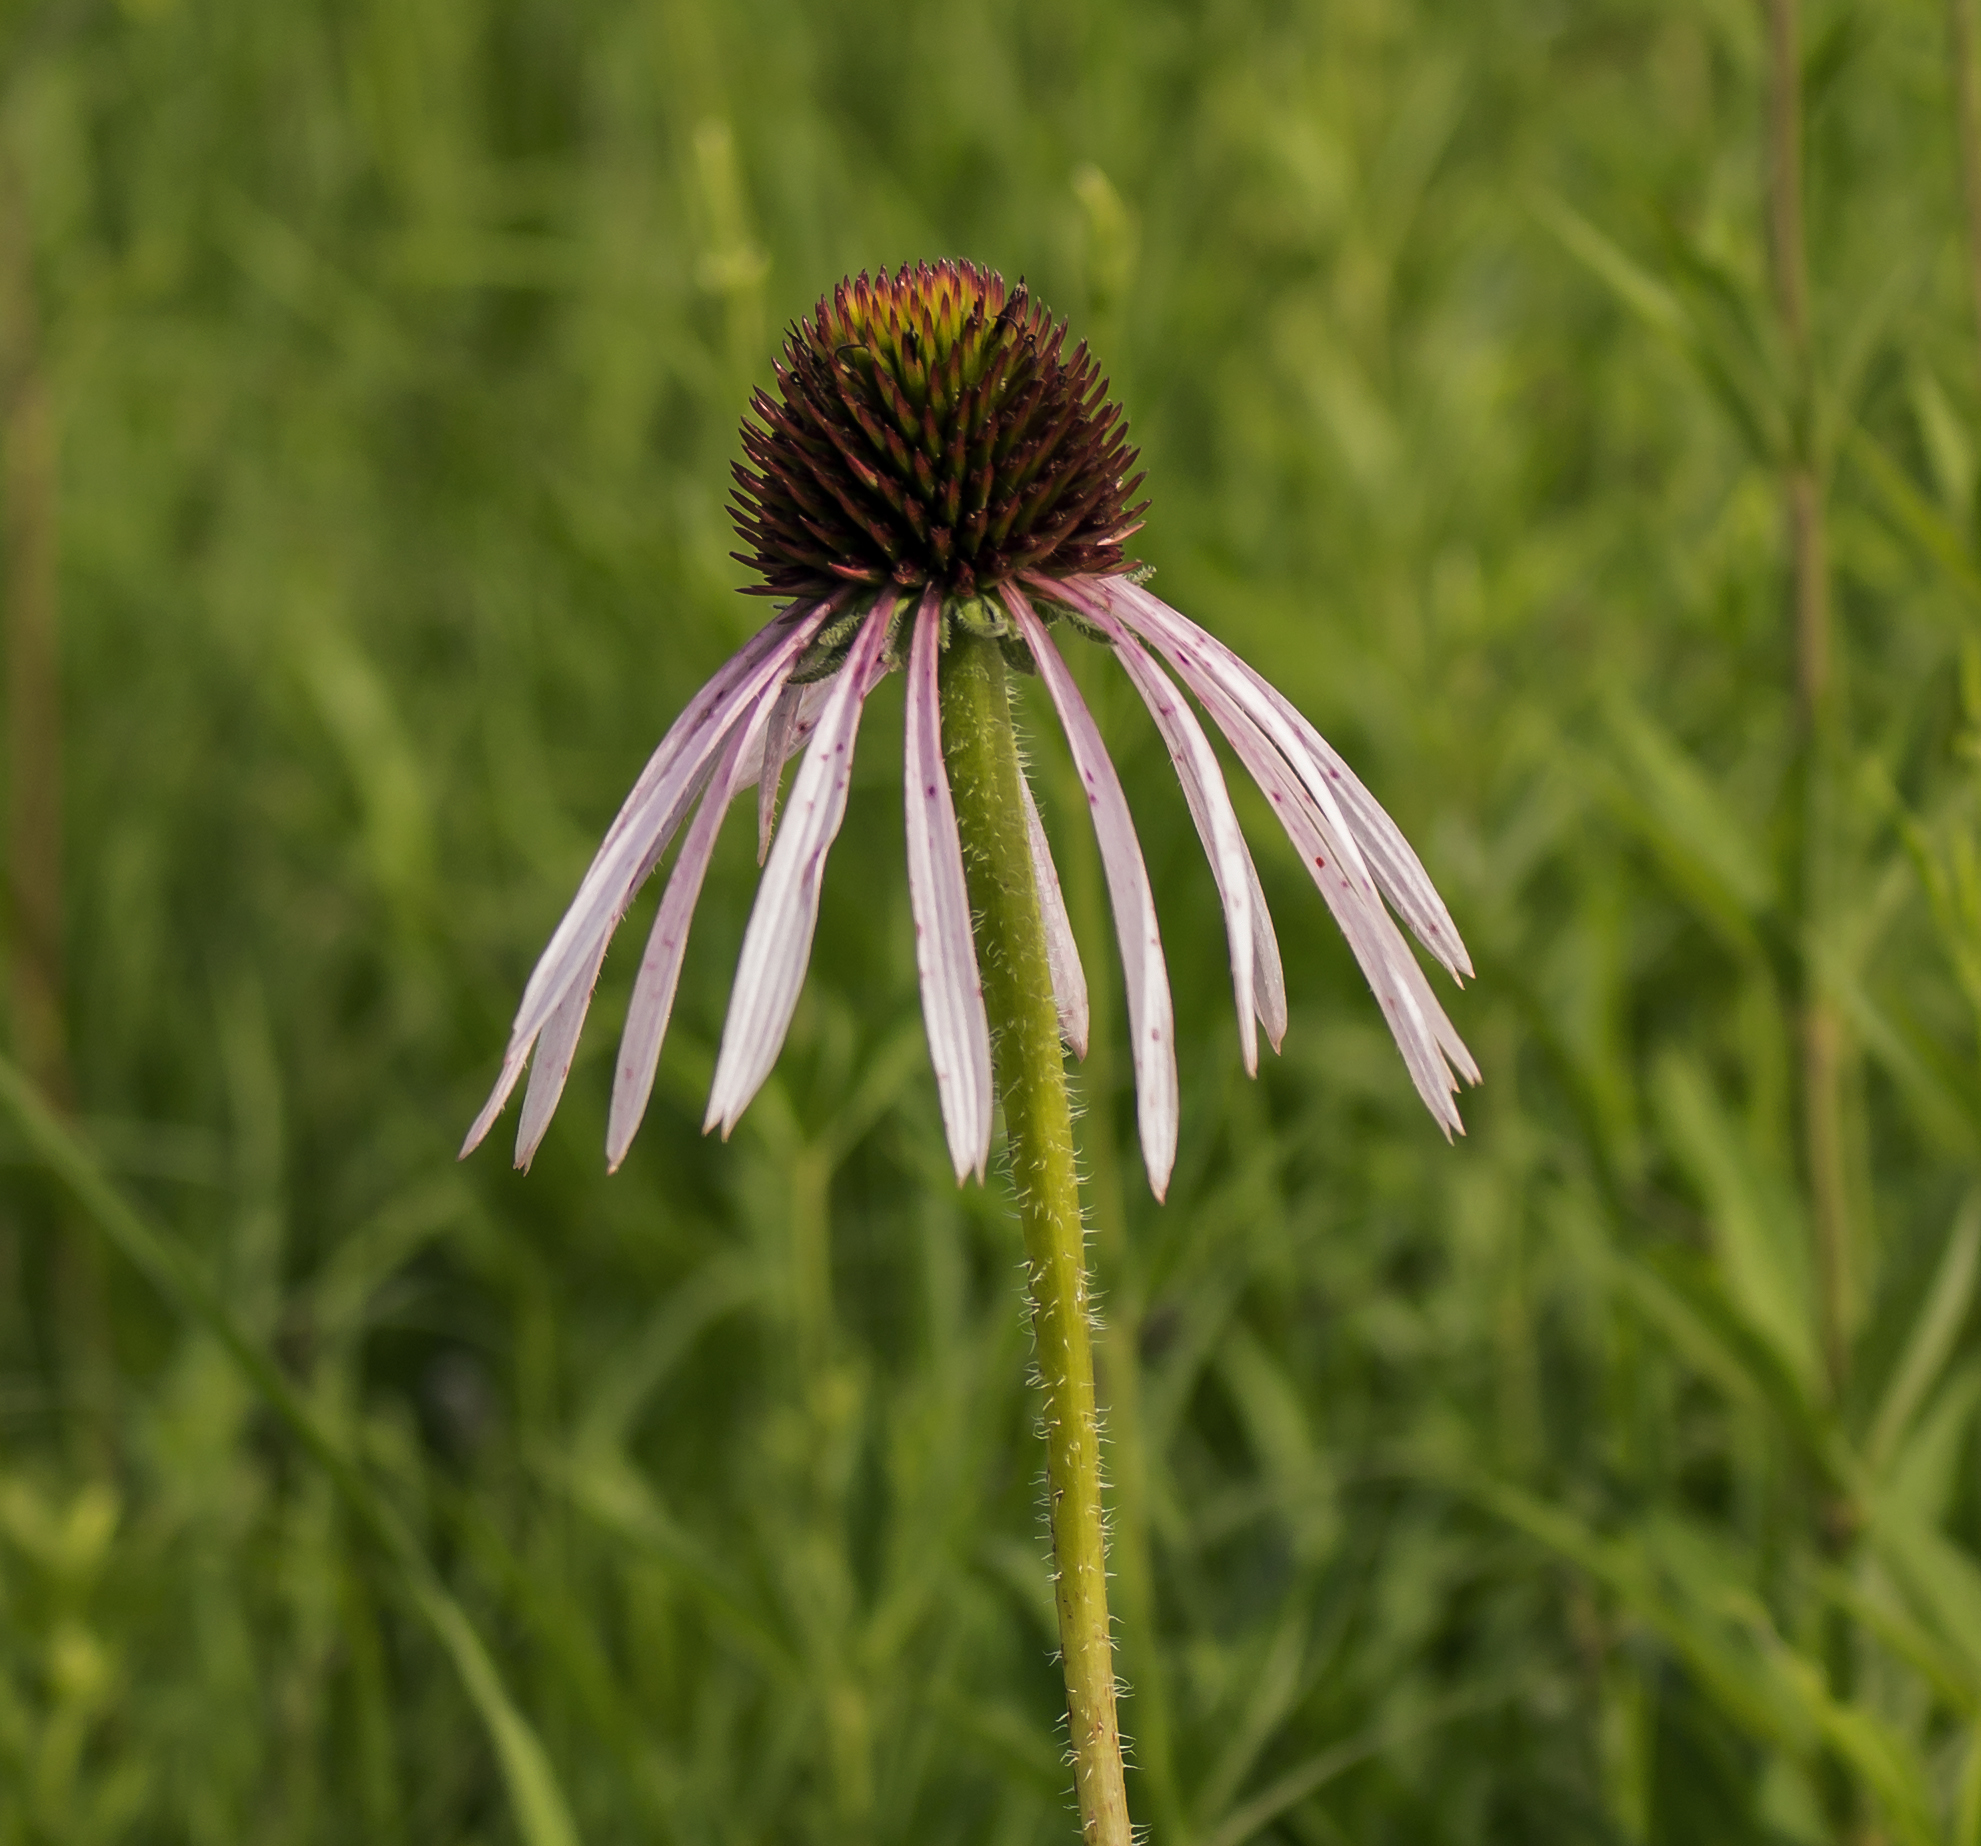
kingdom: Plantae
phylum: Tracheophyta
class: Magnoliopsida
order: Asterales
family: Asteraceae
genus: Echinacea
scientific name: Echinacea pallida
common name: Pale echinacea
